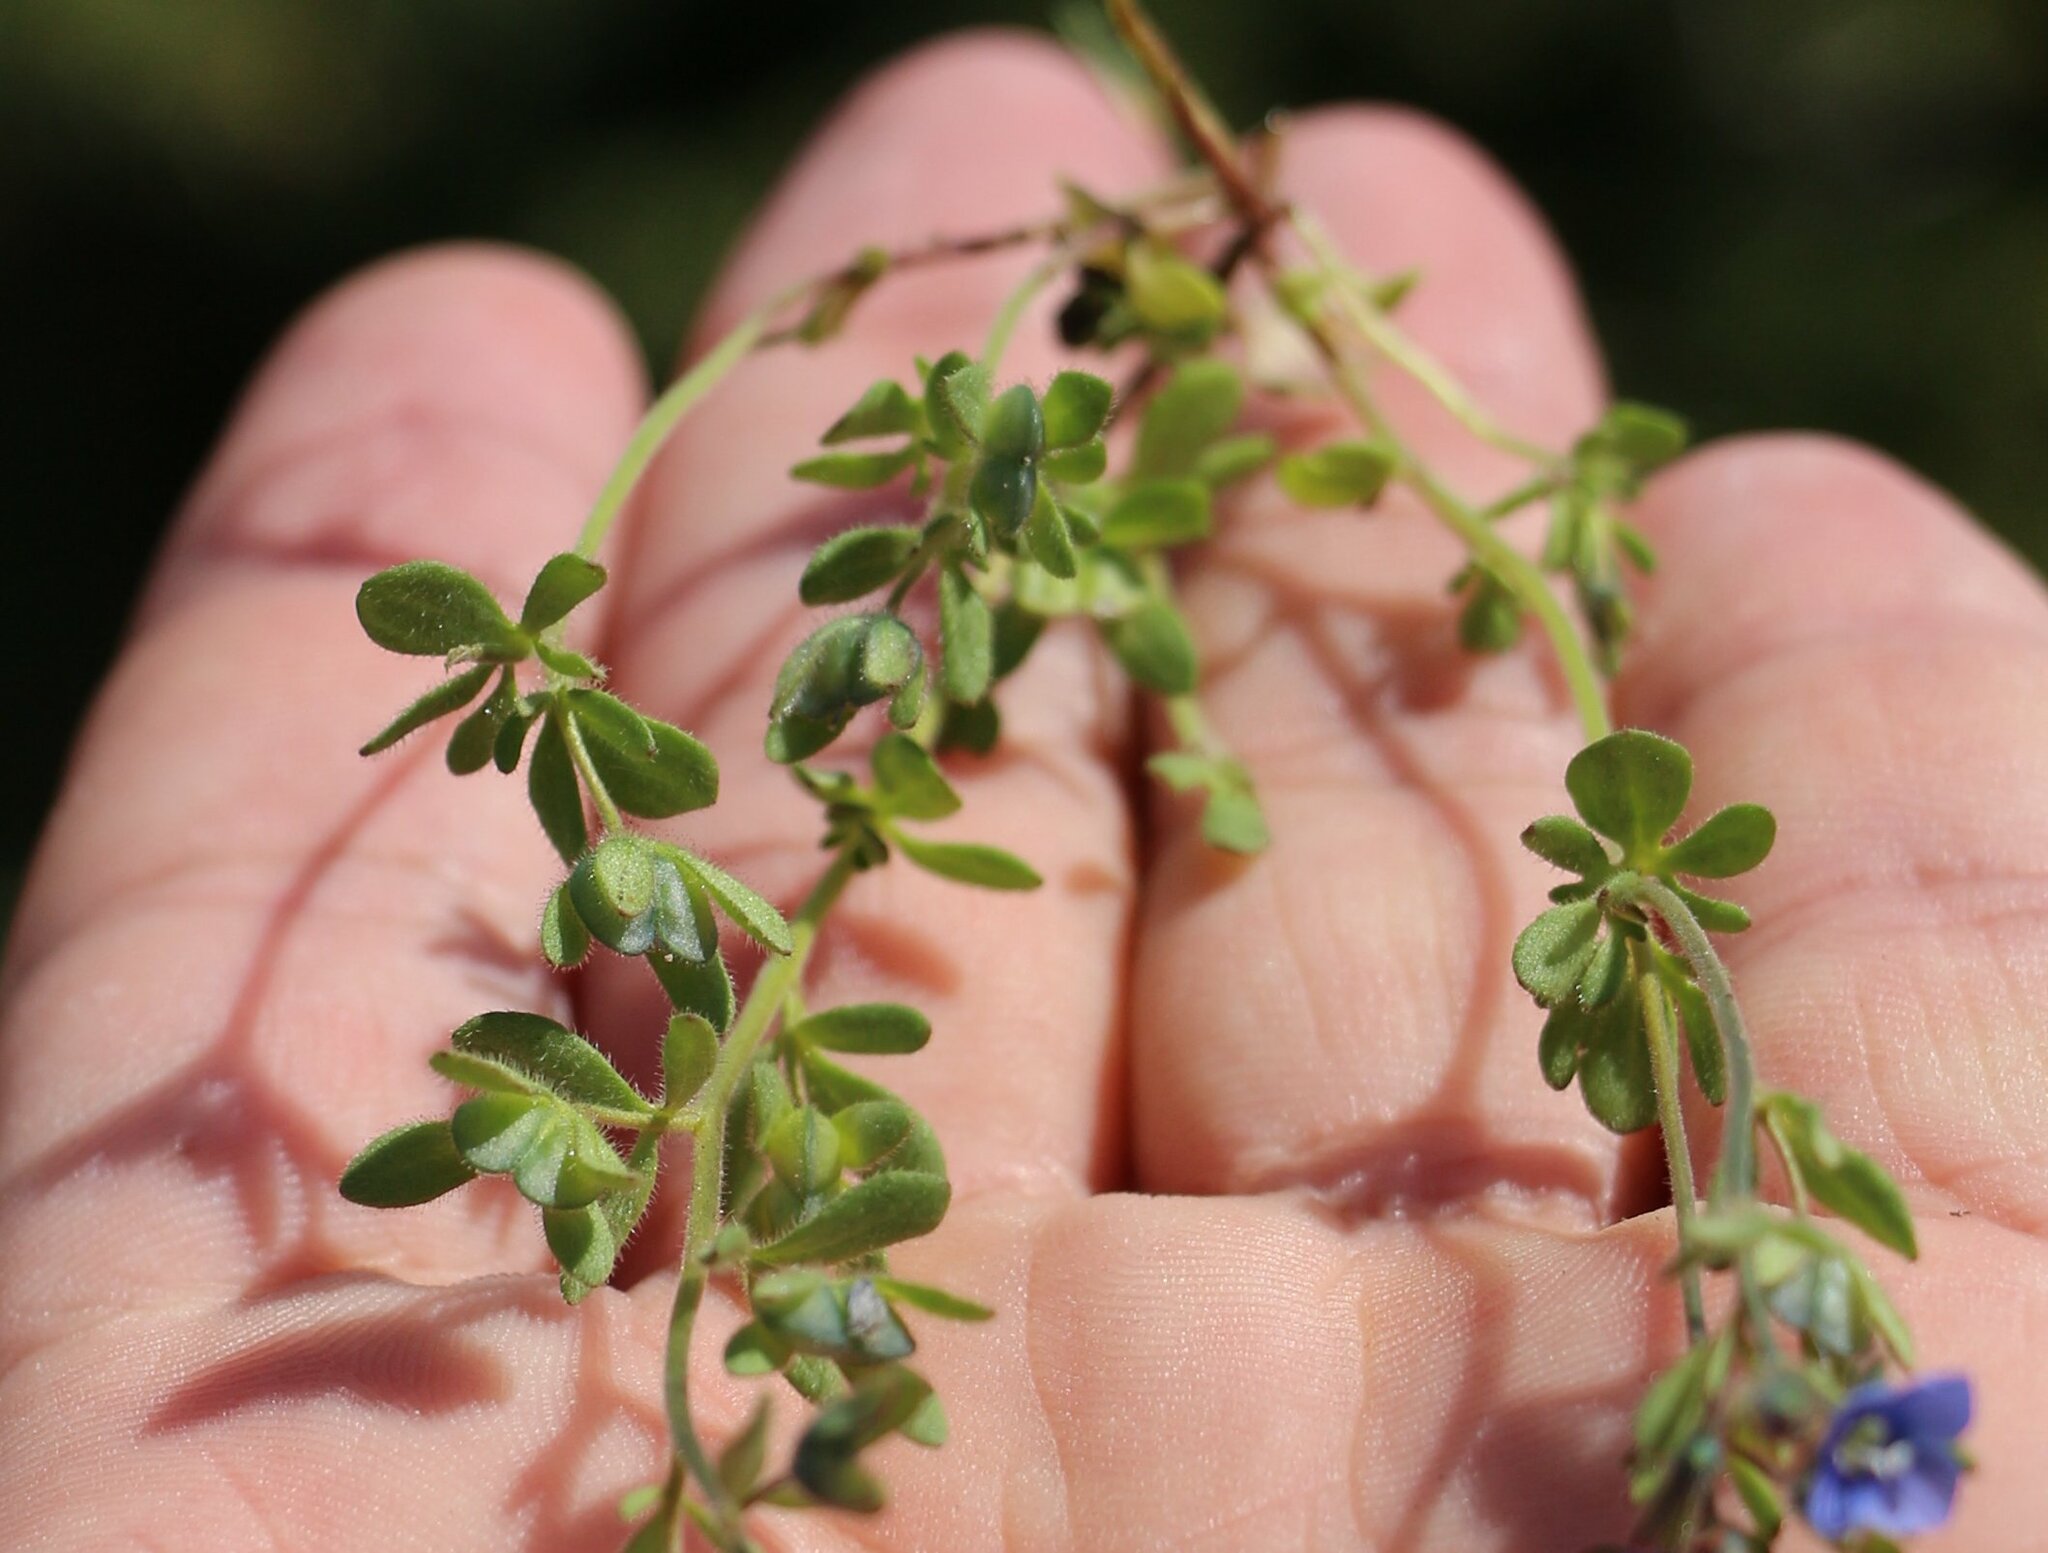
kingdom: Plantae
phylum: Tracheophyta
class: Magnoliopsida
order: Lamiales
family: Plantaginaceae
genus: Veronica
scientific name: Veronica triphyllos
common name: Fingered speedwell
